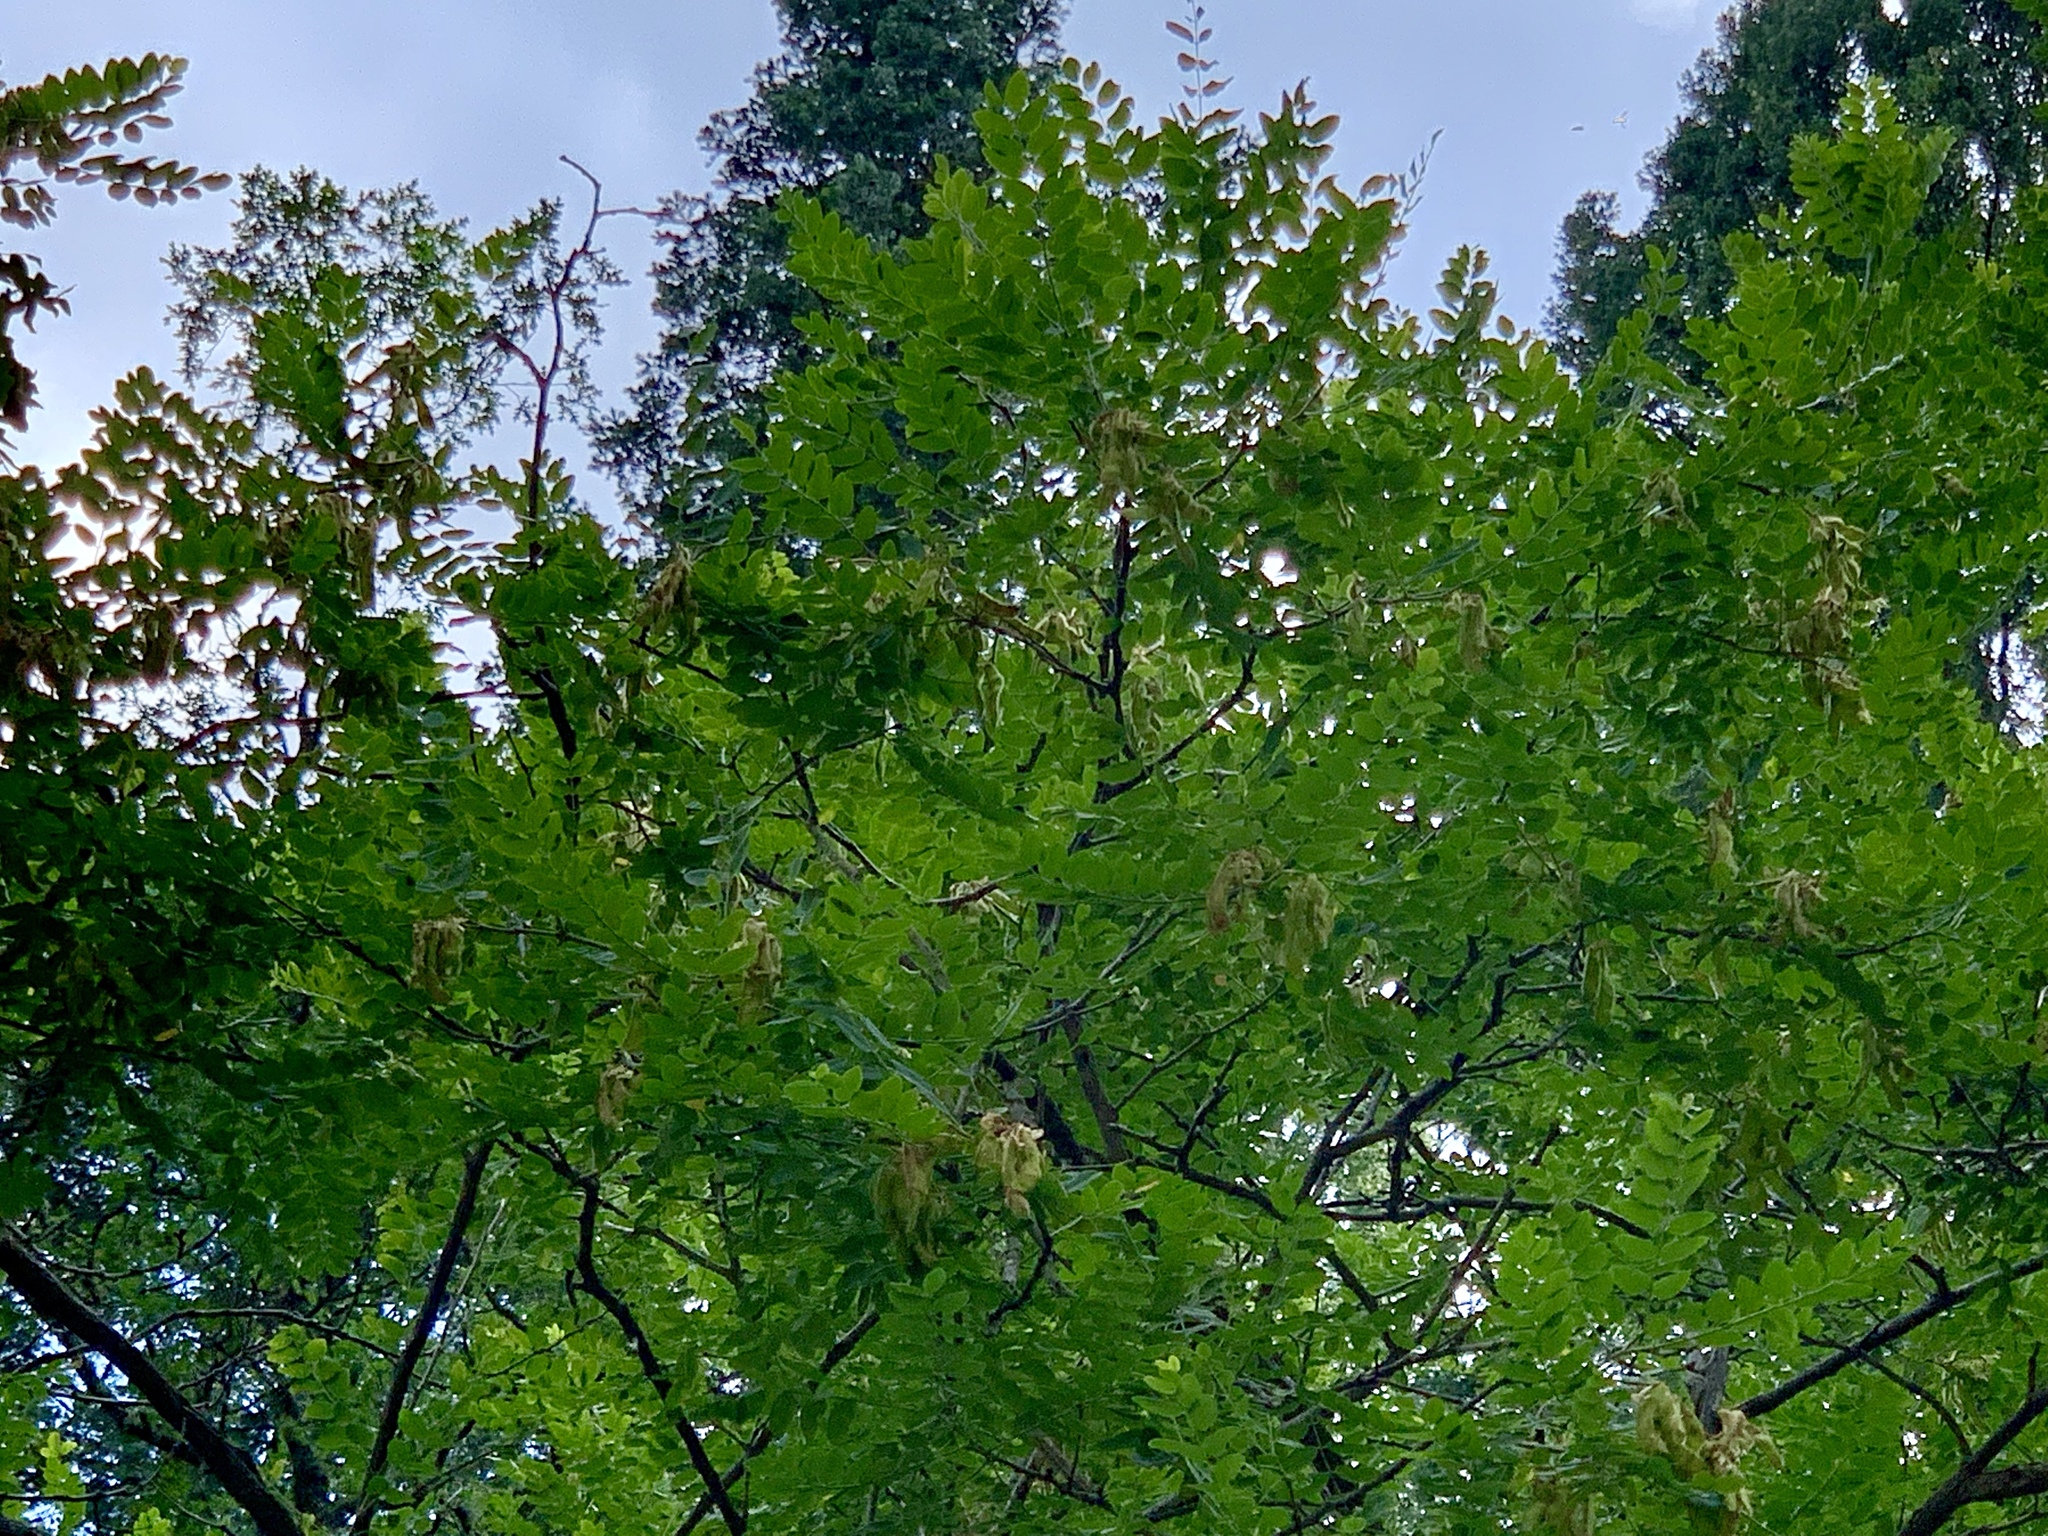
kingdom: Plantae
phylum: Tracheophyta
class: Magnoliopsida
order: Fabales
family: Fabaceae
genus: Robinia
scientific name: Robinia neomexicana
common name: New mexico locust
